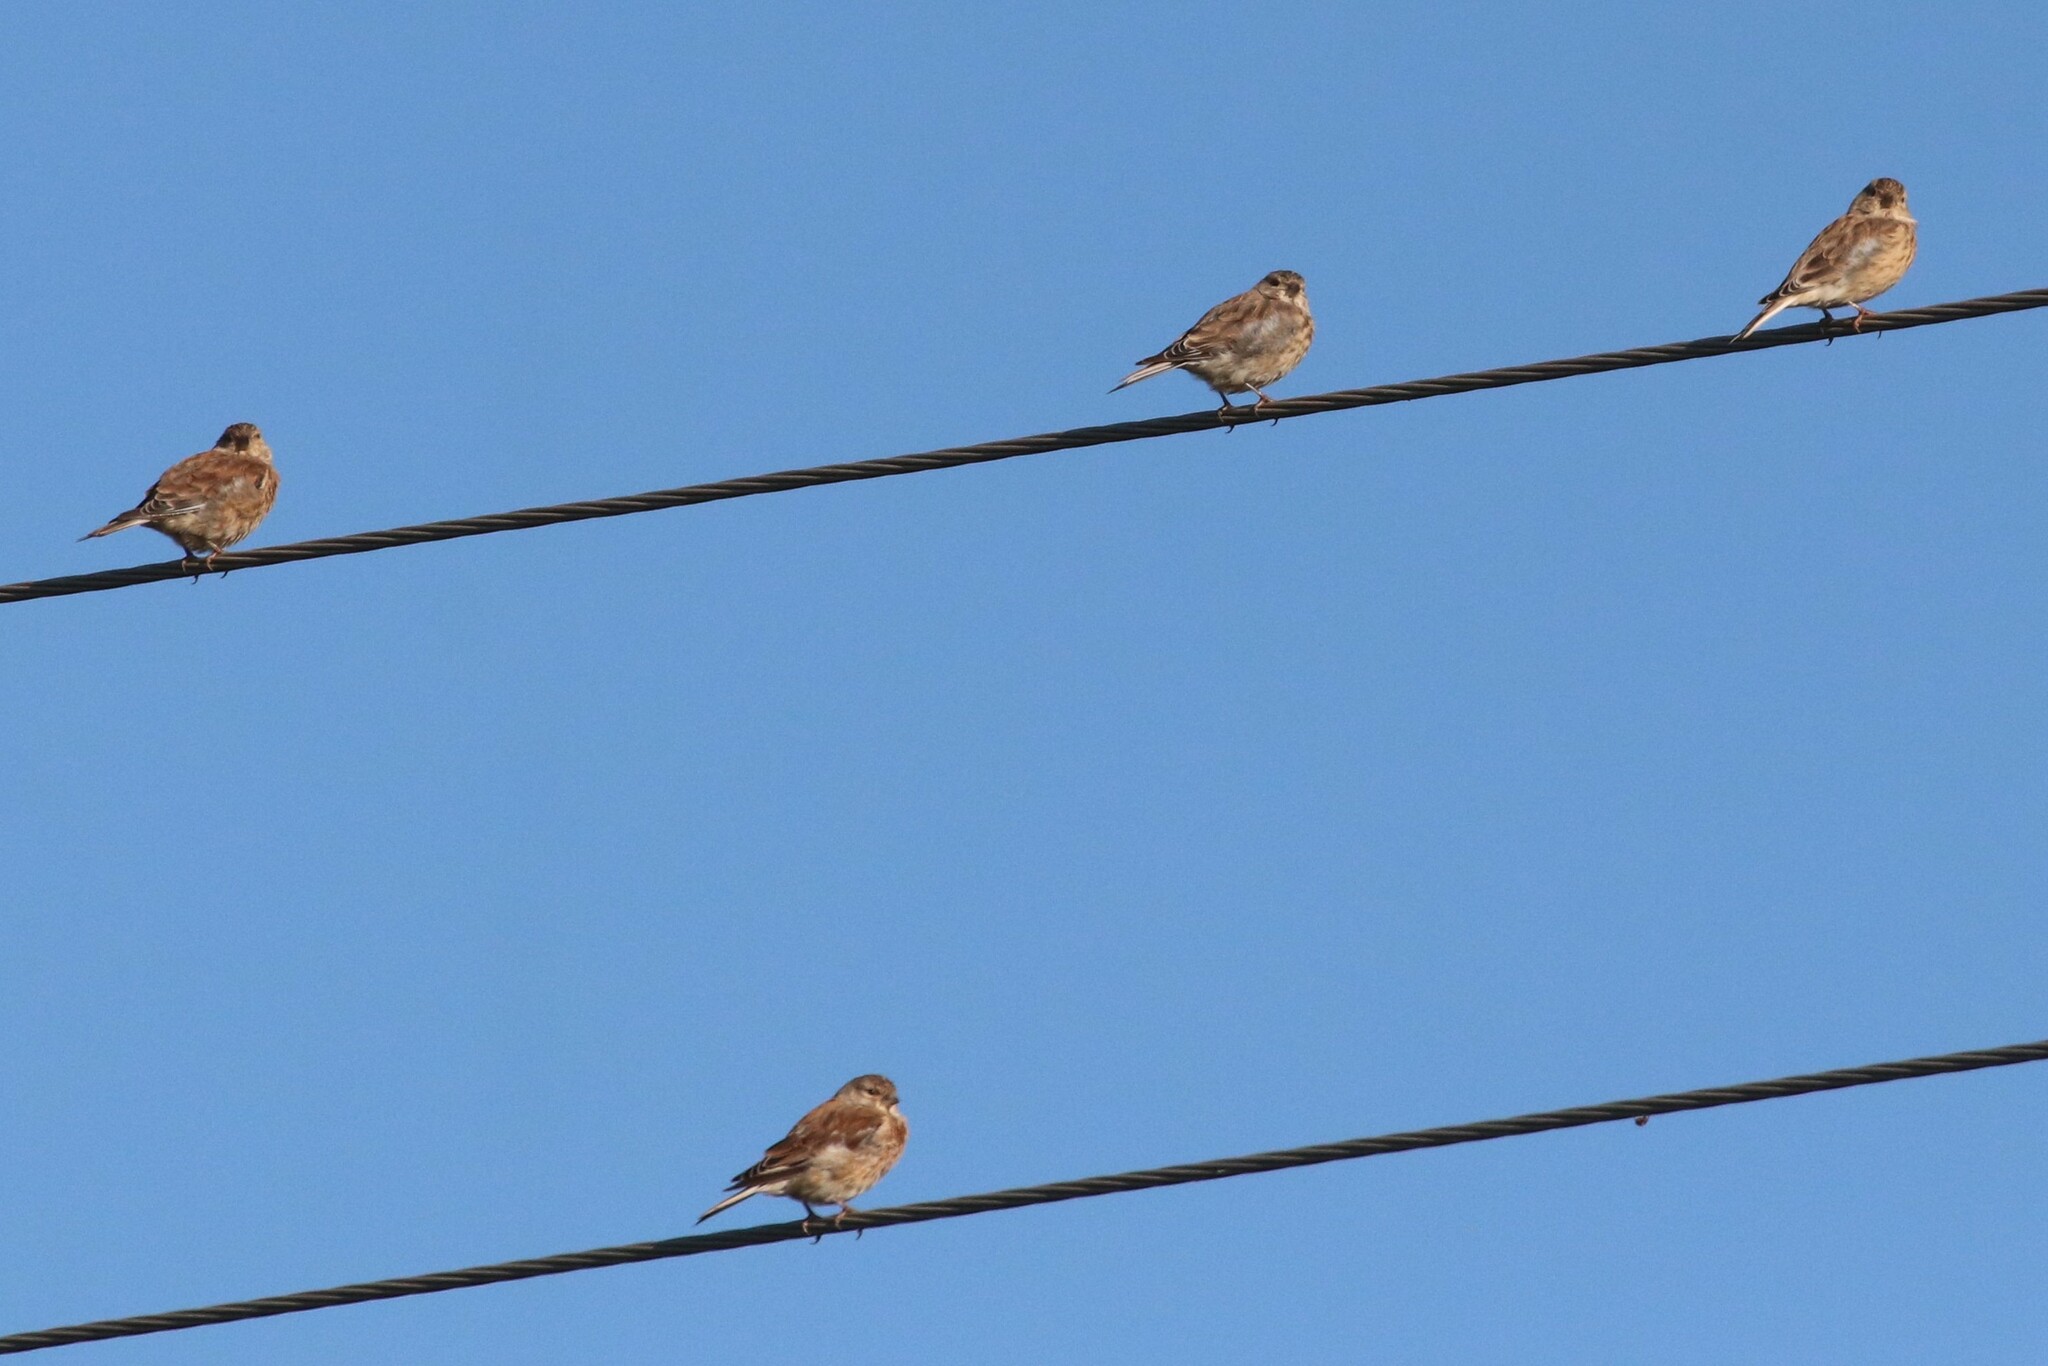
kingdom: Animalia
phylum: Chordata
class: Aves
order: Passeriformes
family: Fringillidae
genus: Linaria
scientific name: Linaria cannabina
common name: Common linnet
